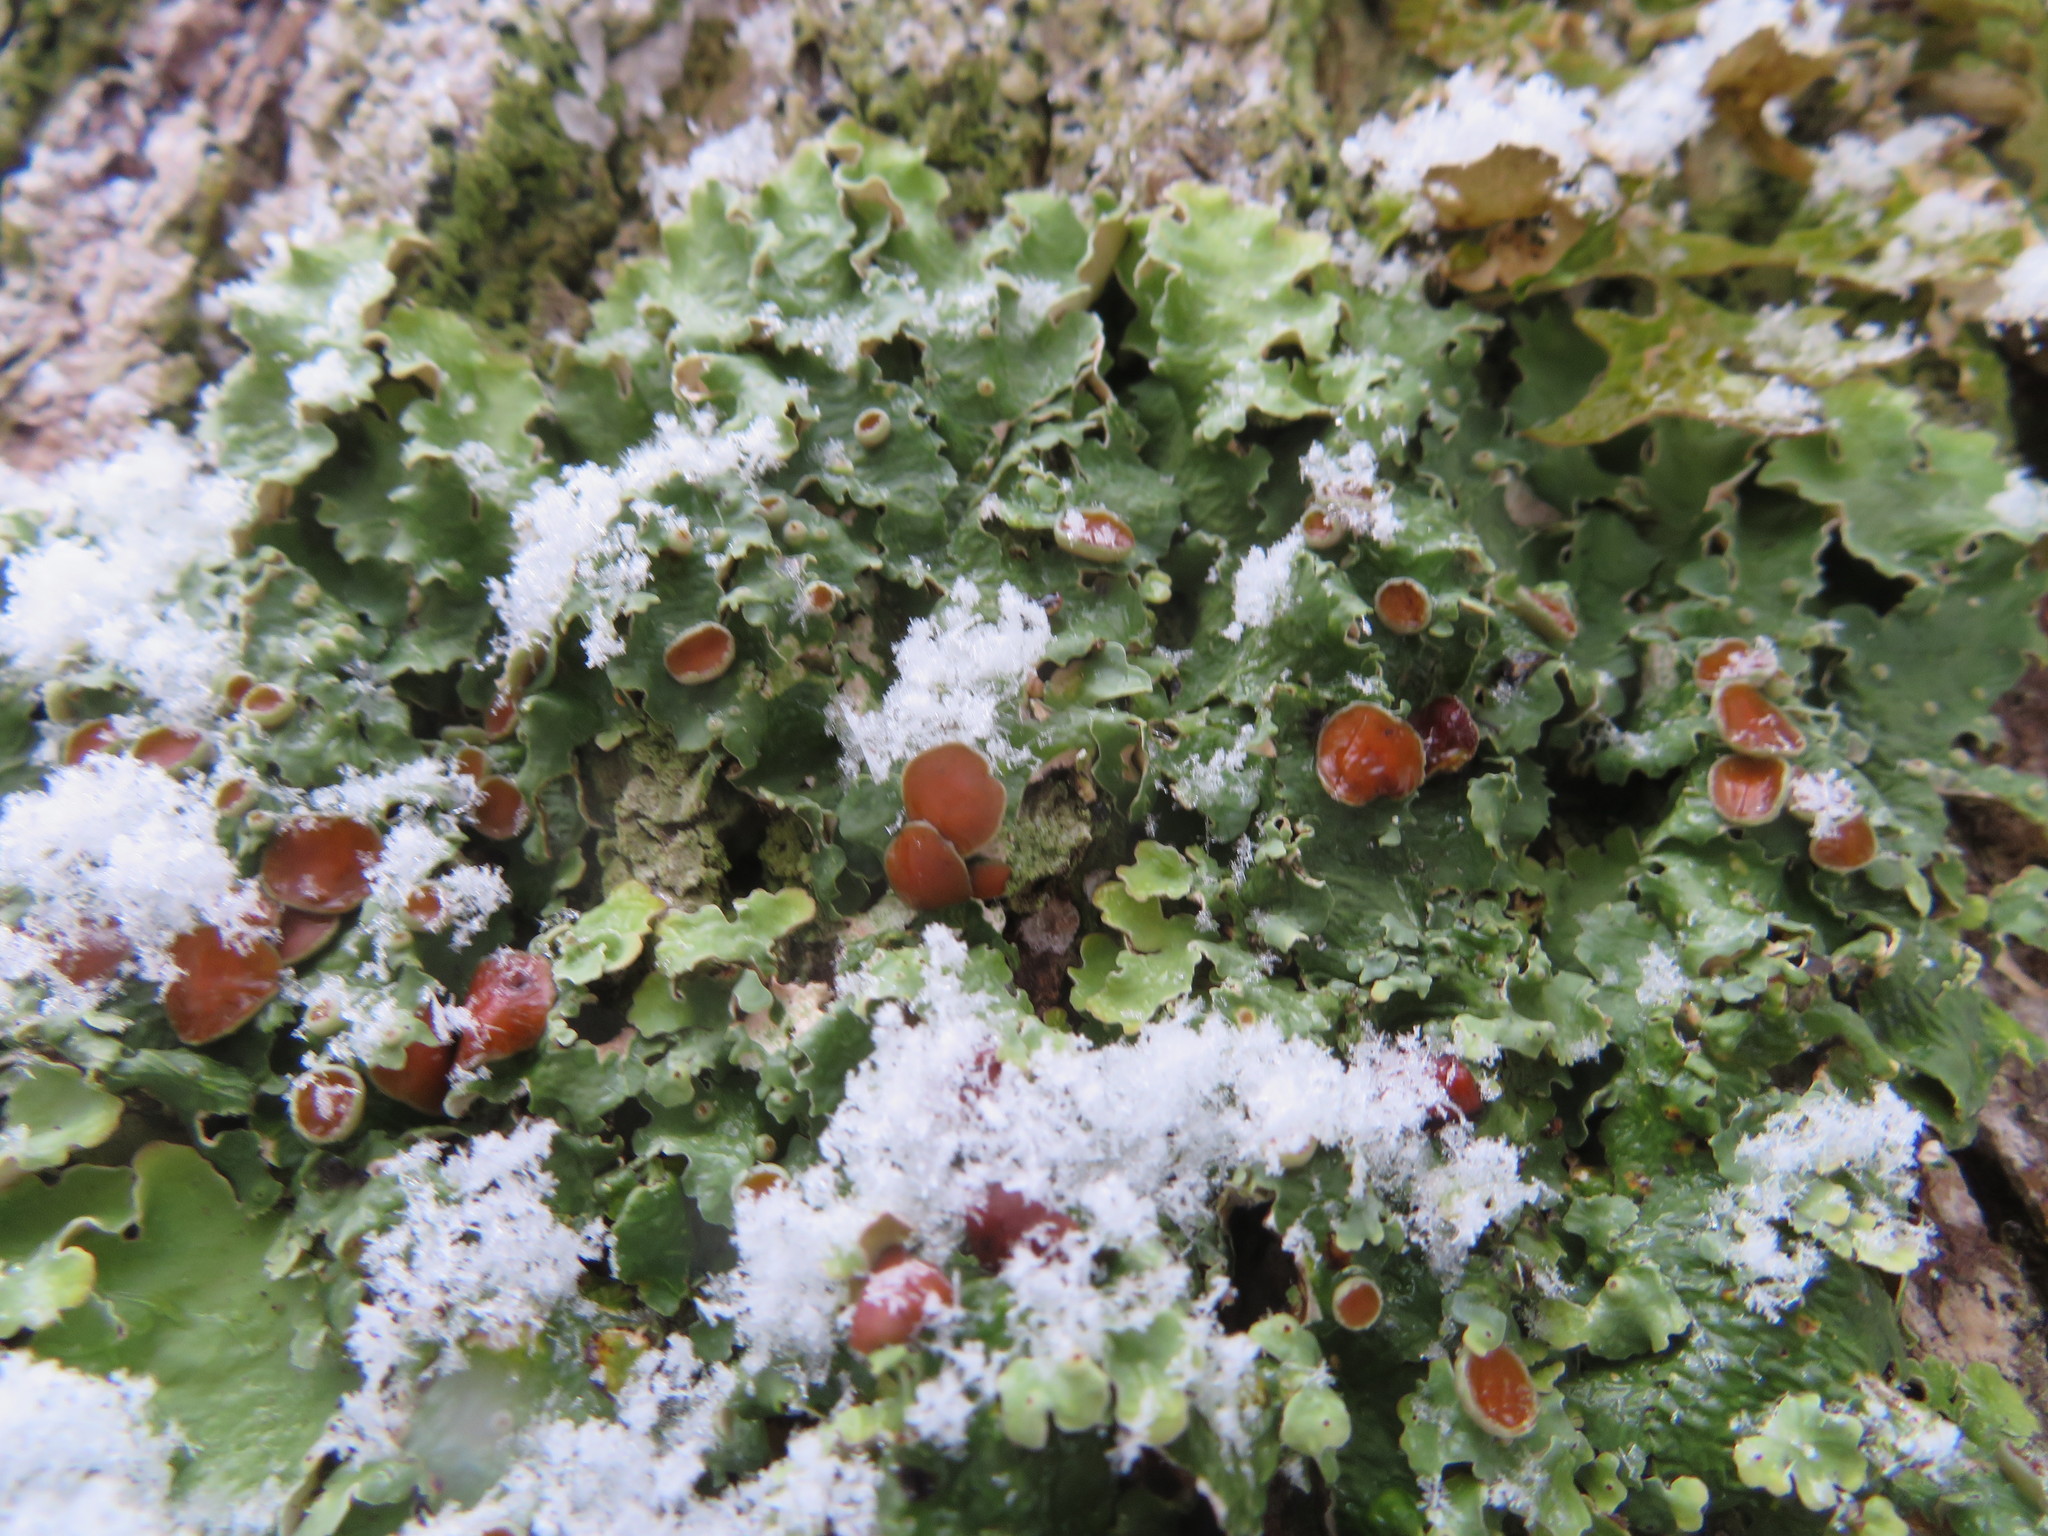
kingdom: Fungi
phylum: Ascomycota
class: Lecanoromycetes
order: Peltigerales
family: Lobariaceae
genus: Ricasolia
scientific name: Ricasolia quercizans
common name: Smooth lungwort
